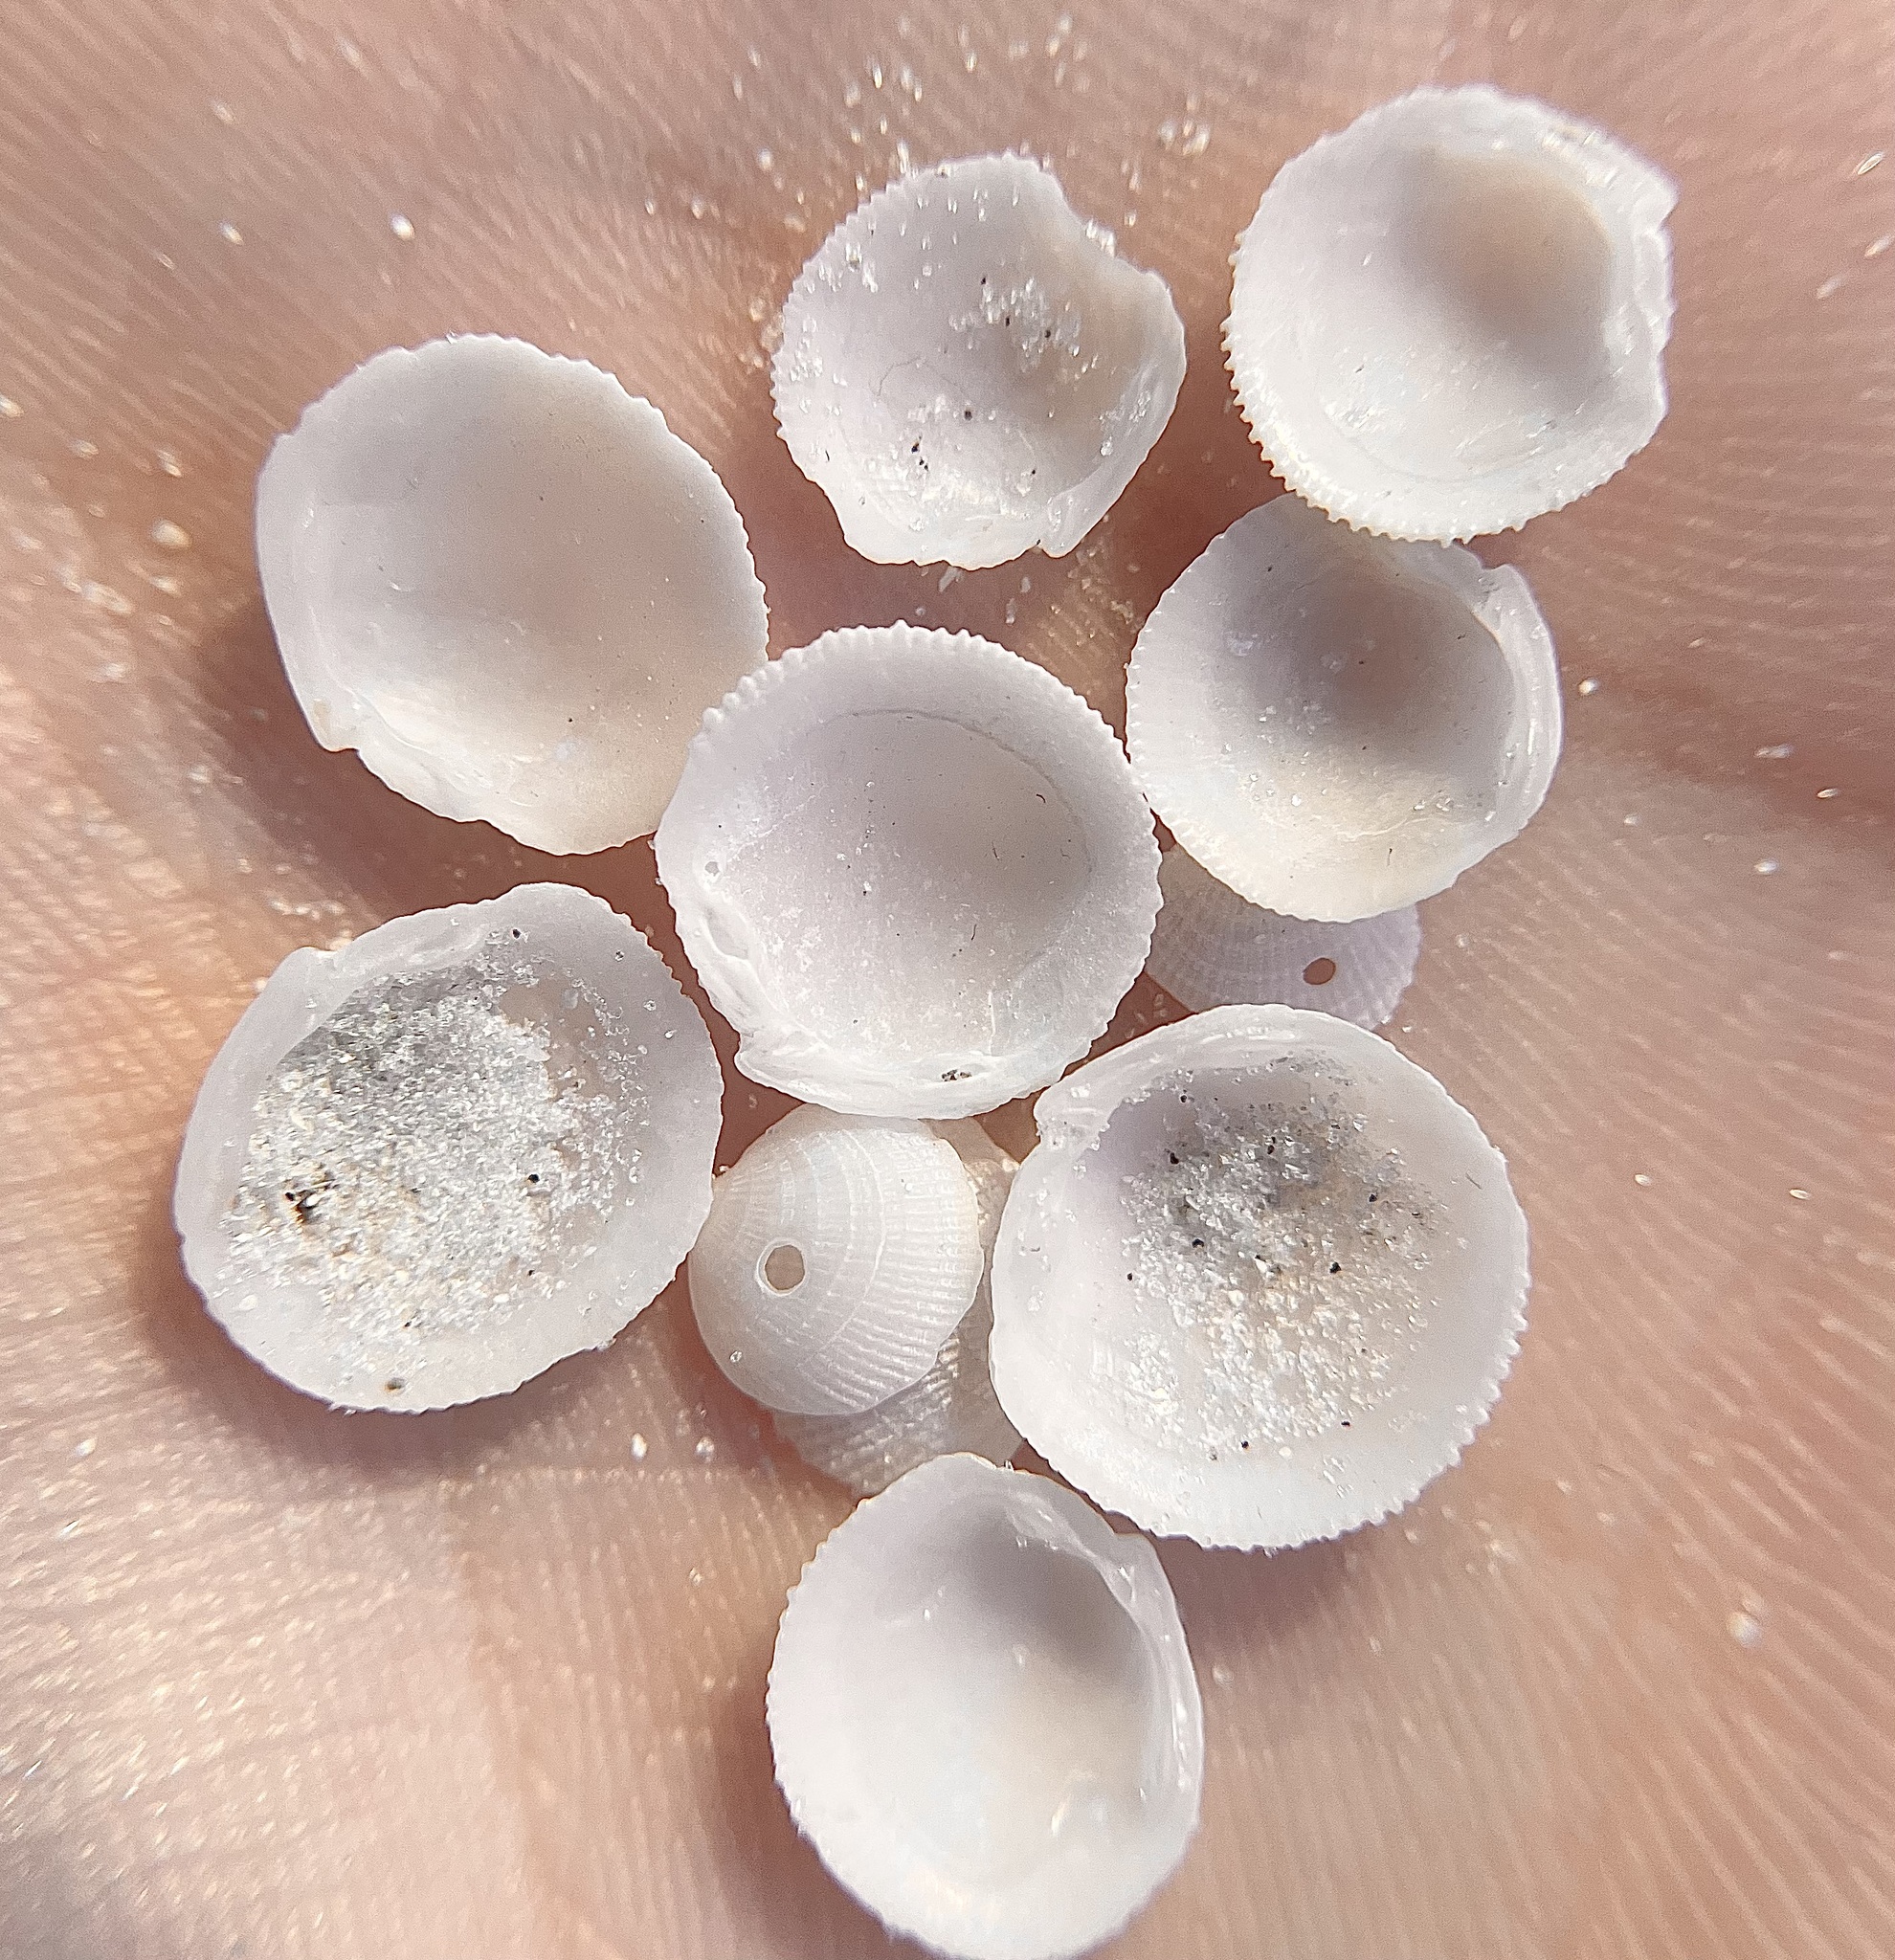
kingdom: Animalia
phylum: Mollusca
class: Bivalvia
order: Lucinida
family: Lucinidae
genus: Lucinisca
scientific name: Lucinisca nassula
